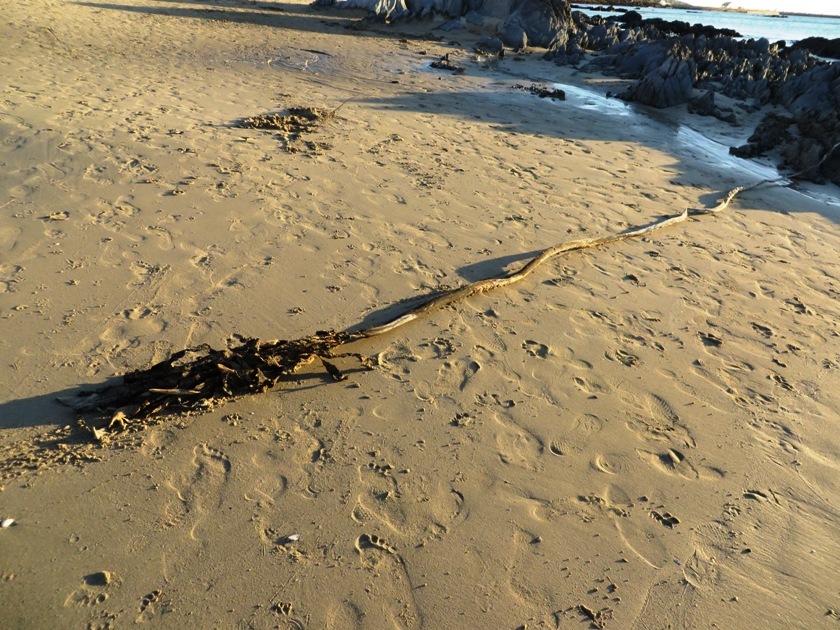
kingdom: Chromista
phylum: Ochrophyta
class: Phaeophyceae
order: Laminariales
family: Lessoniaceae
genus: Ecklonia
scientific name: Ecklonia
